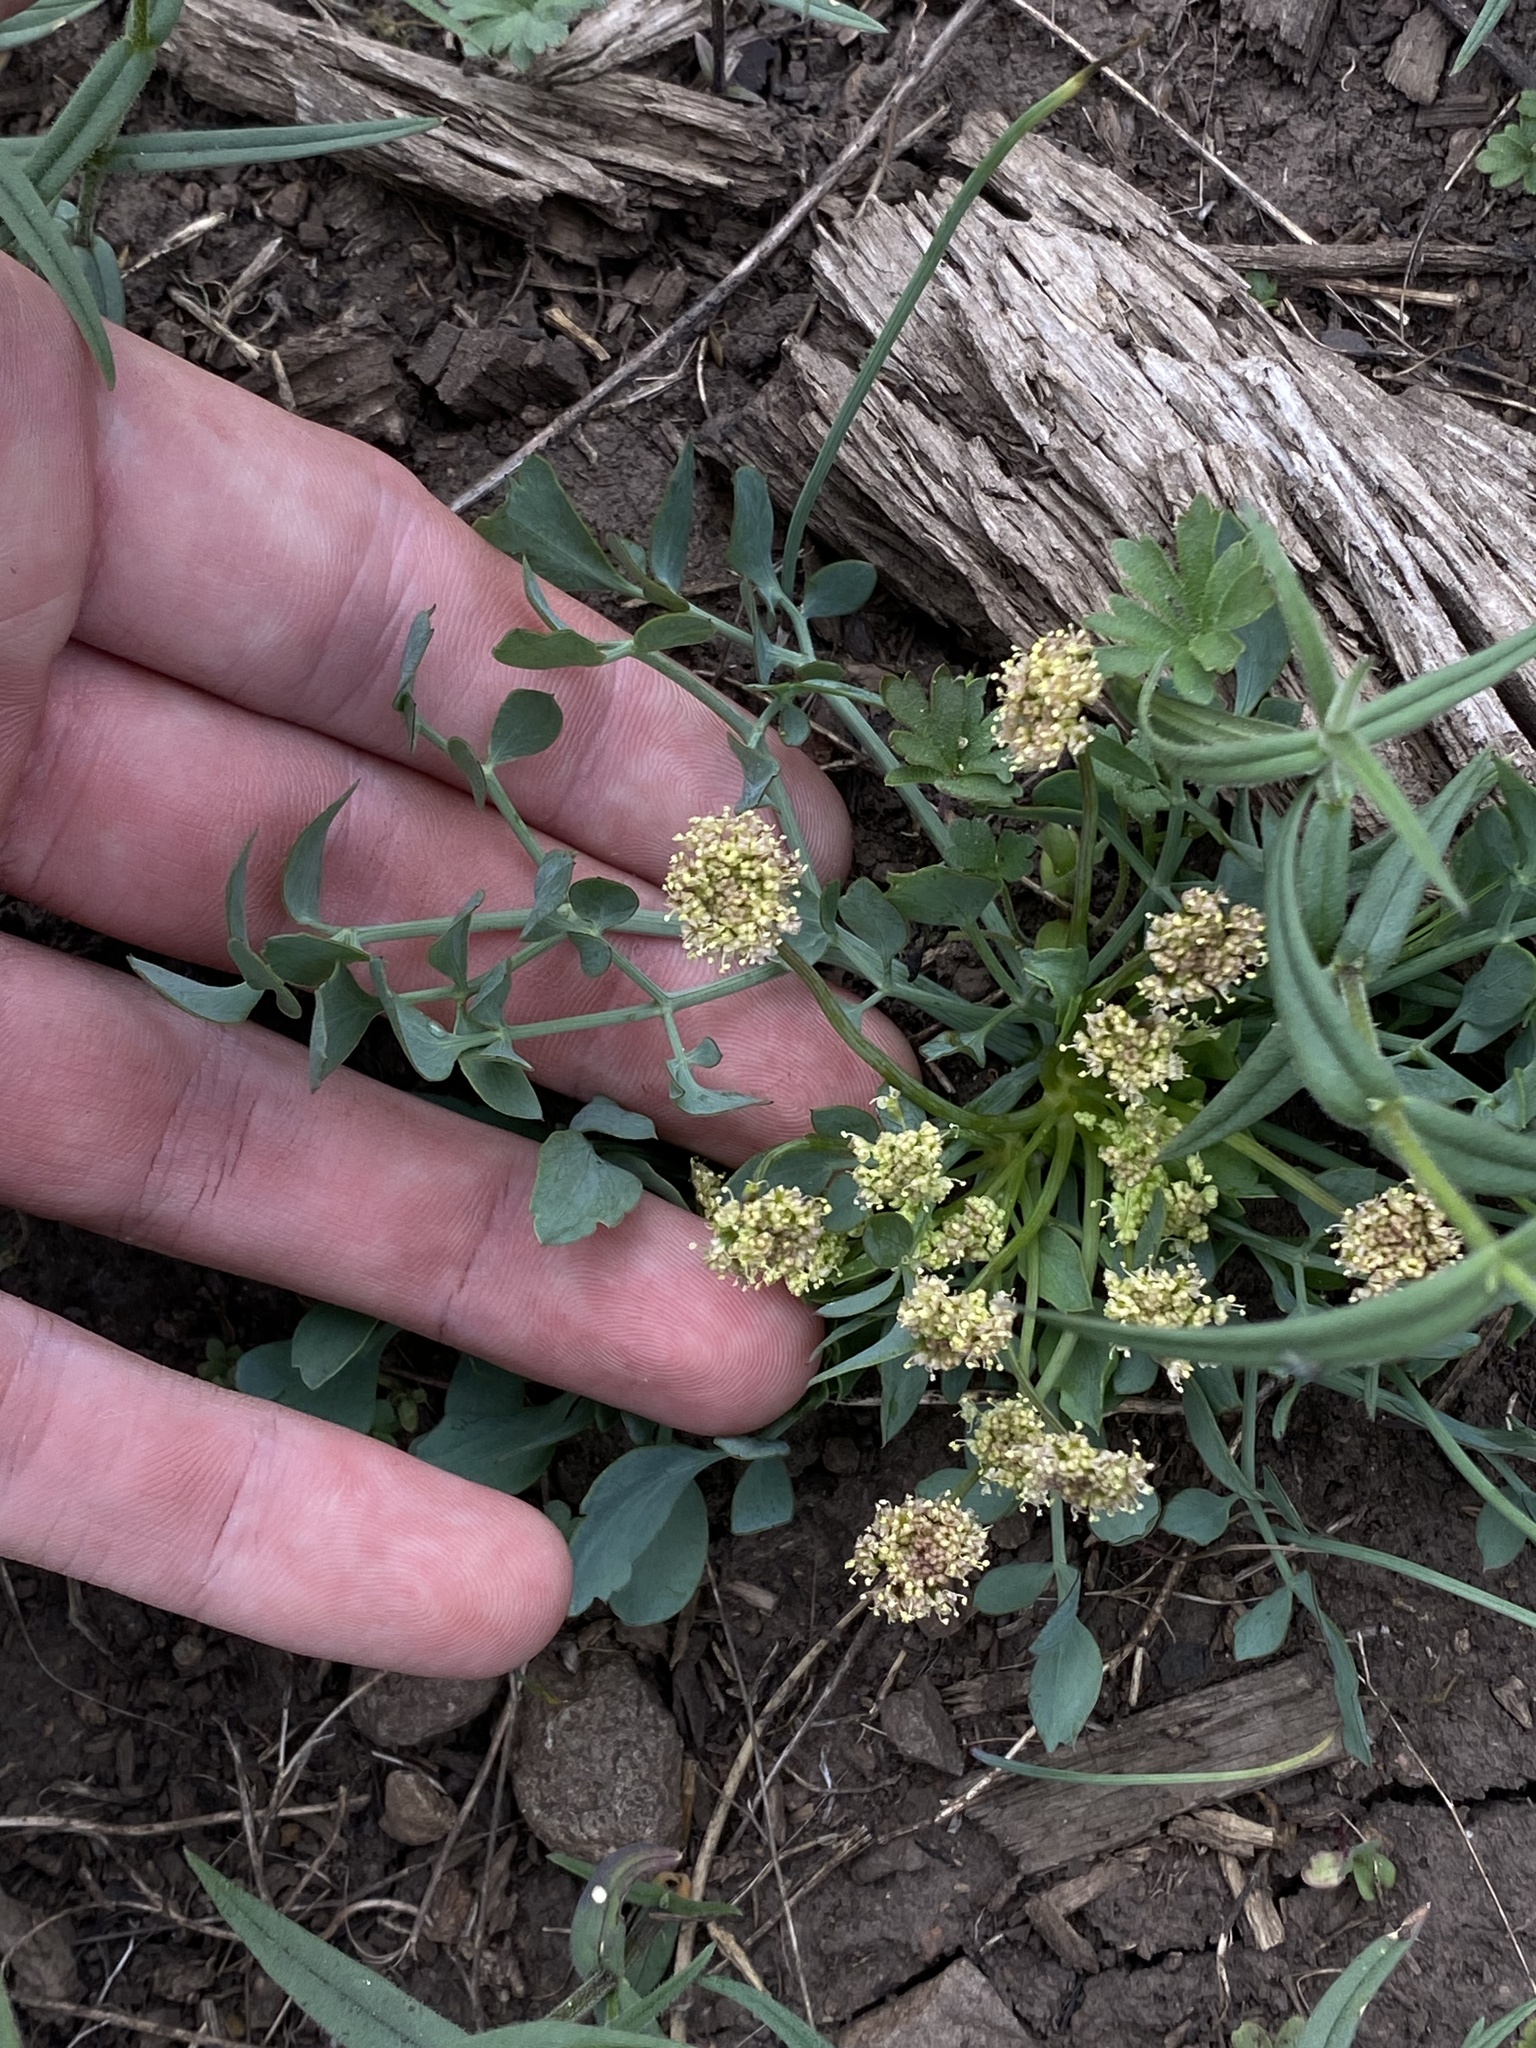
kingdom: Plantae
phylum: Tracheophyta
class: Magnoliopsida
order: Apiales
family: Apiaceae
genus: Lomatium
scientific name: Lomatium nudicaule
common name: Pestle lomatium
